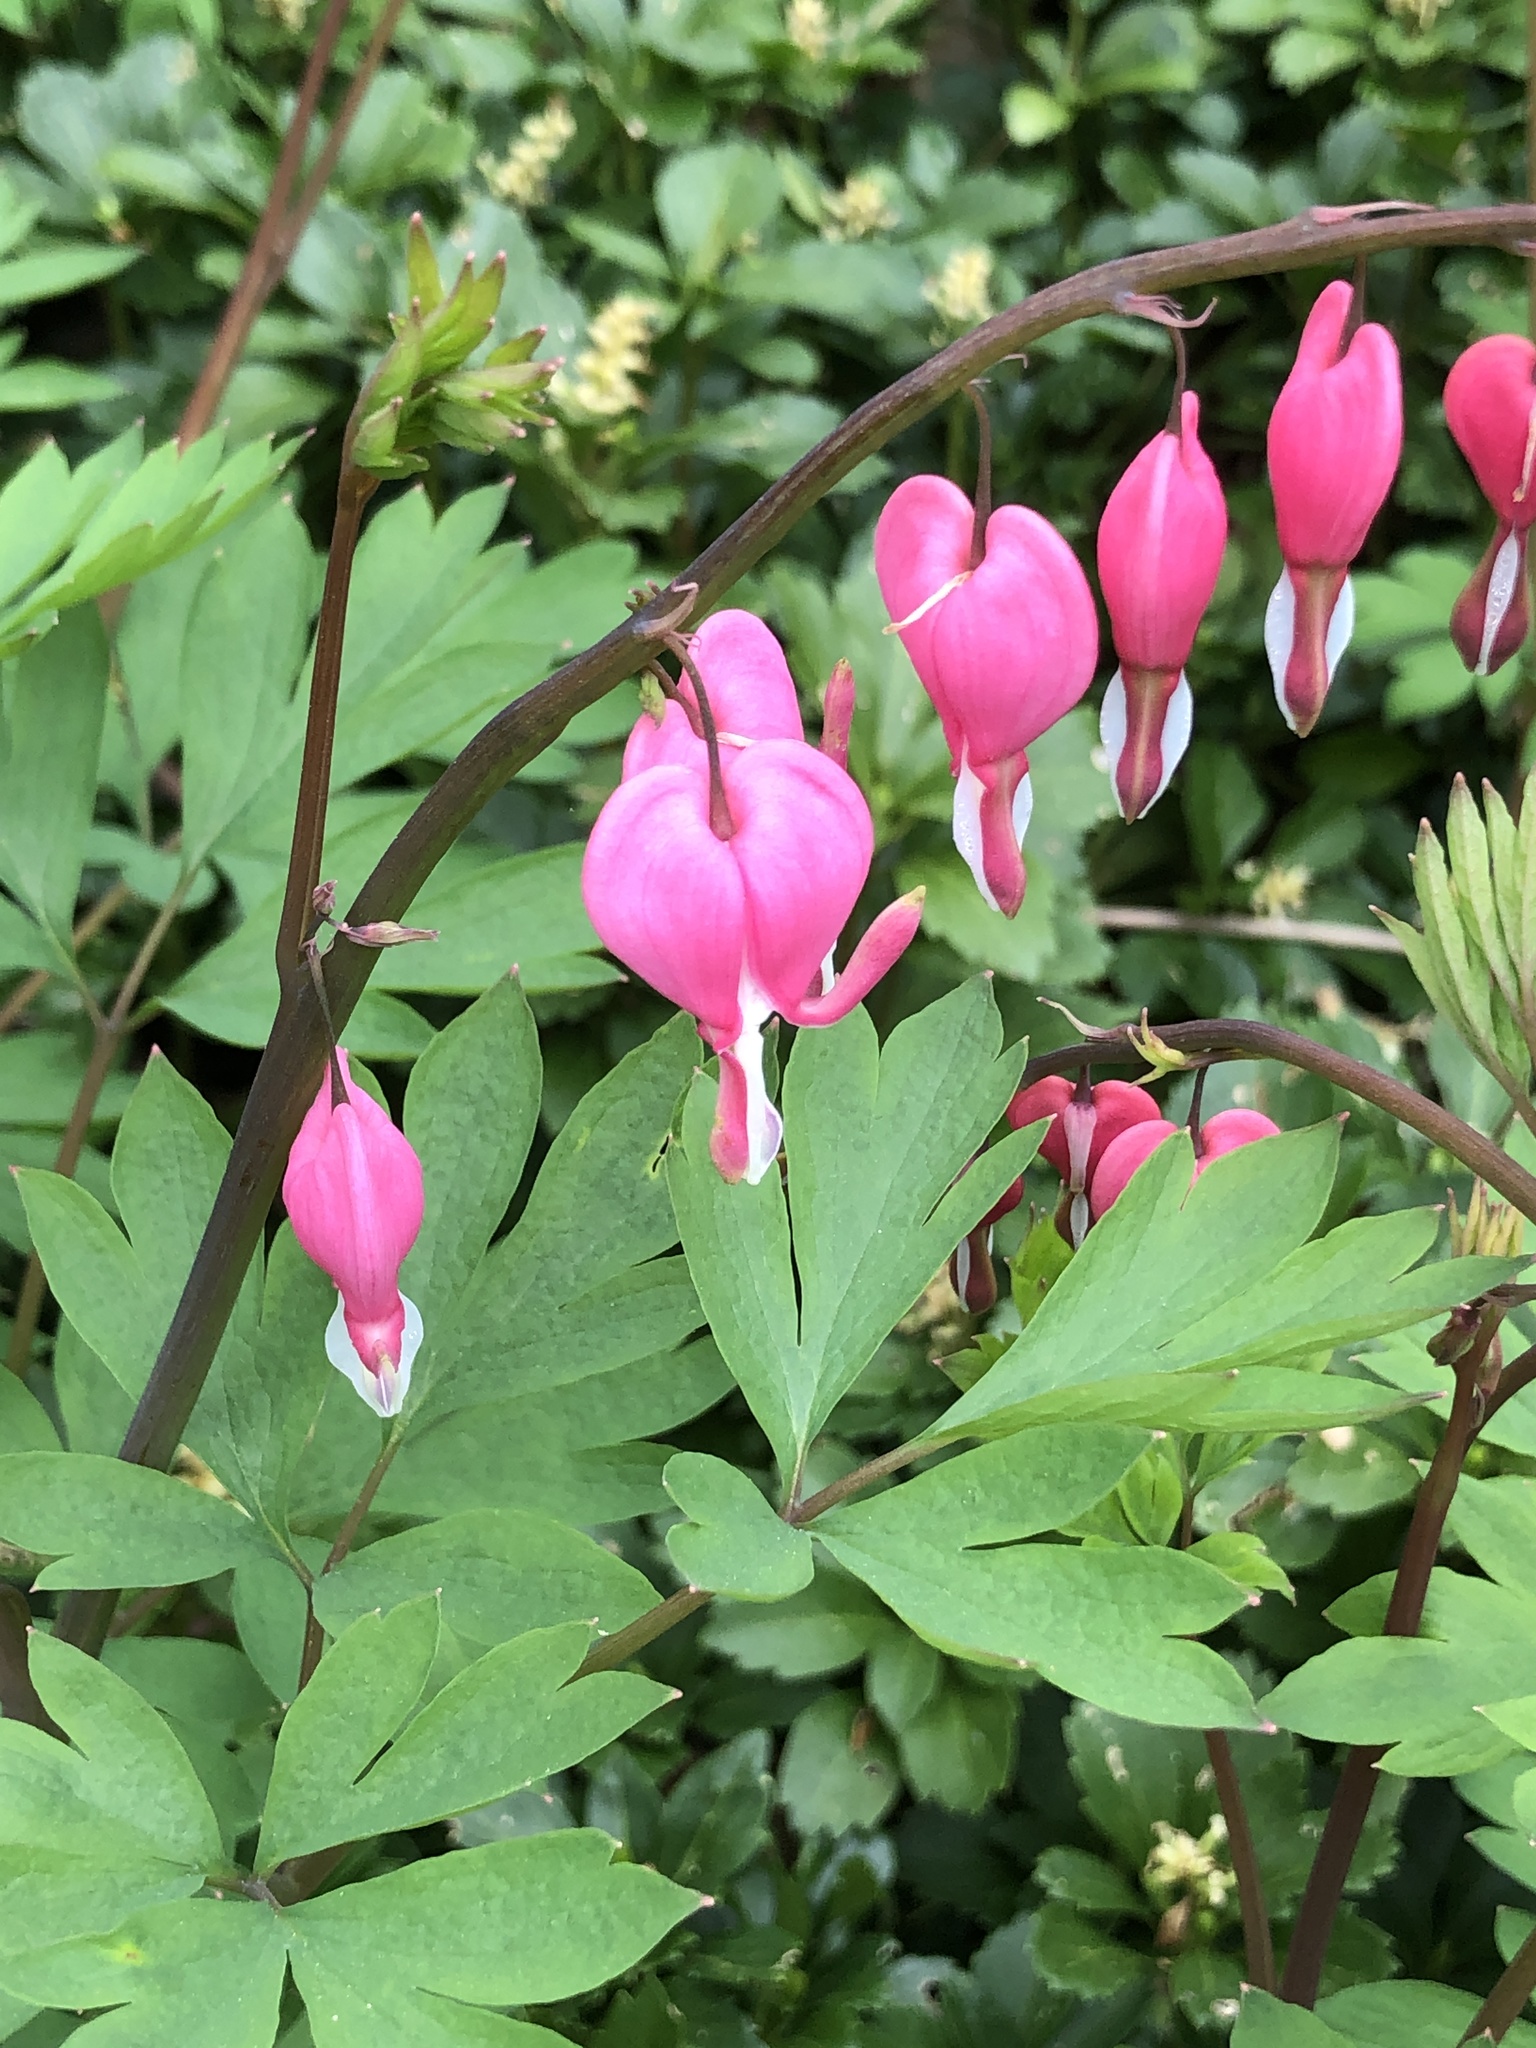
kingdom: Plantae
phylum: Tracheophyta
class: Magnoliopsida
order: Ranunculales
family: Papaveraceae
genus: Lamprocapnos
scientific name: Lamprocapnos spectabilis
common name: Asian bleeding-heart
